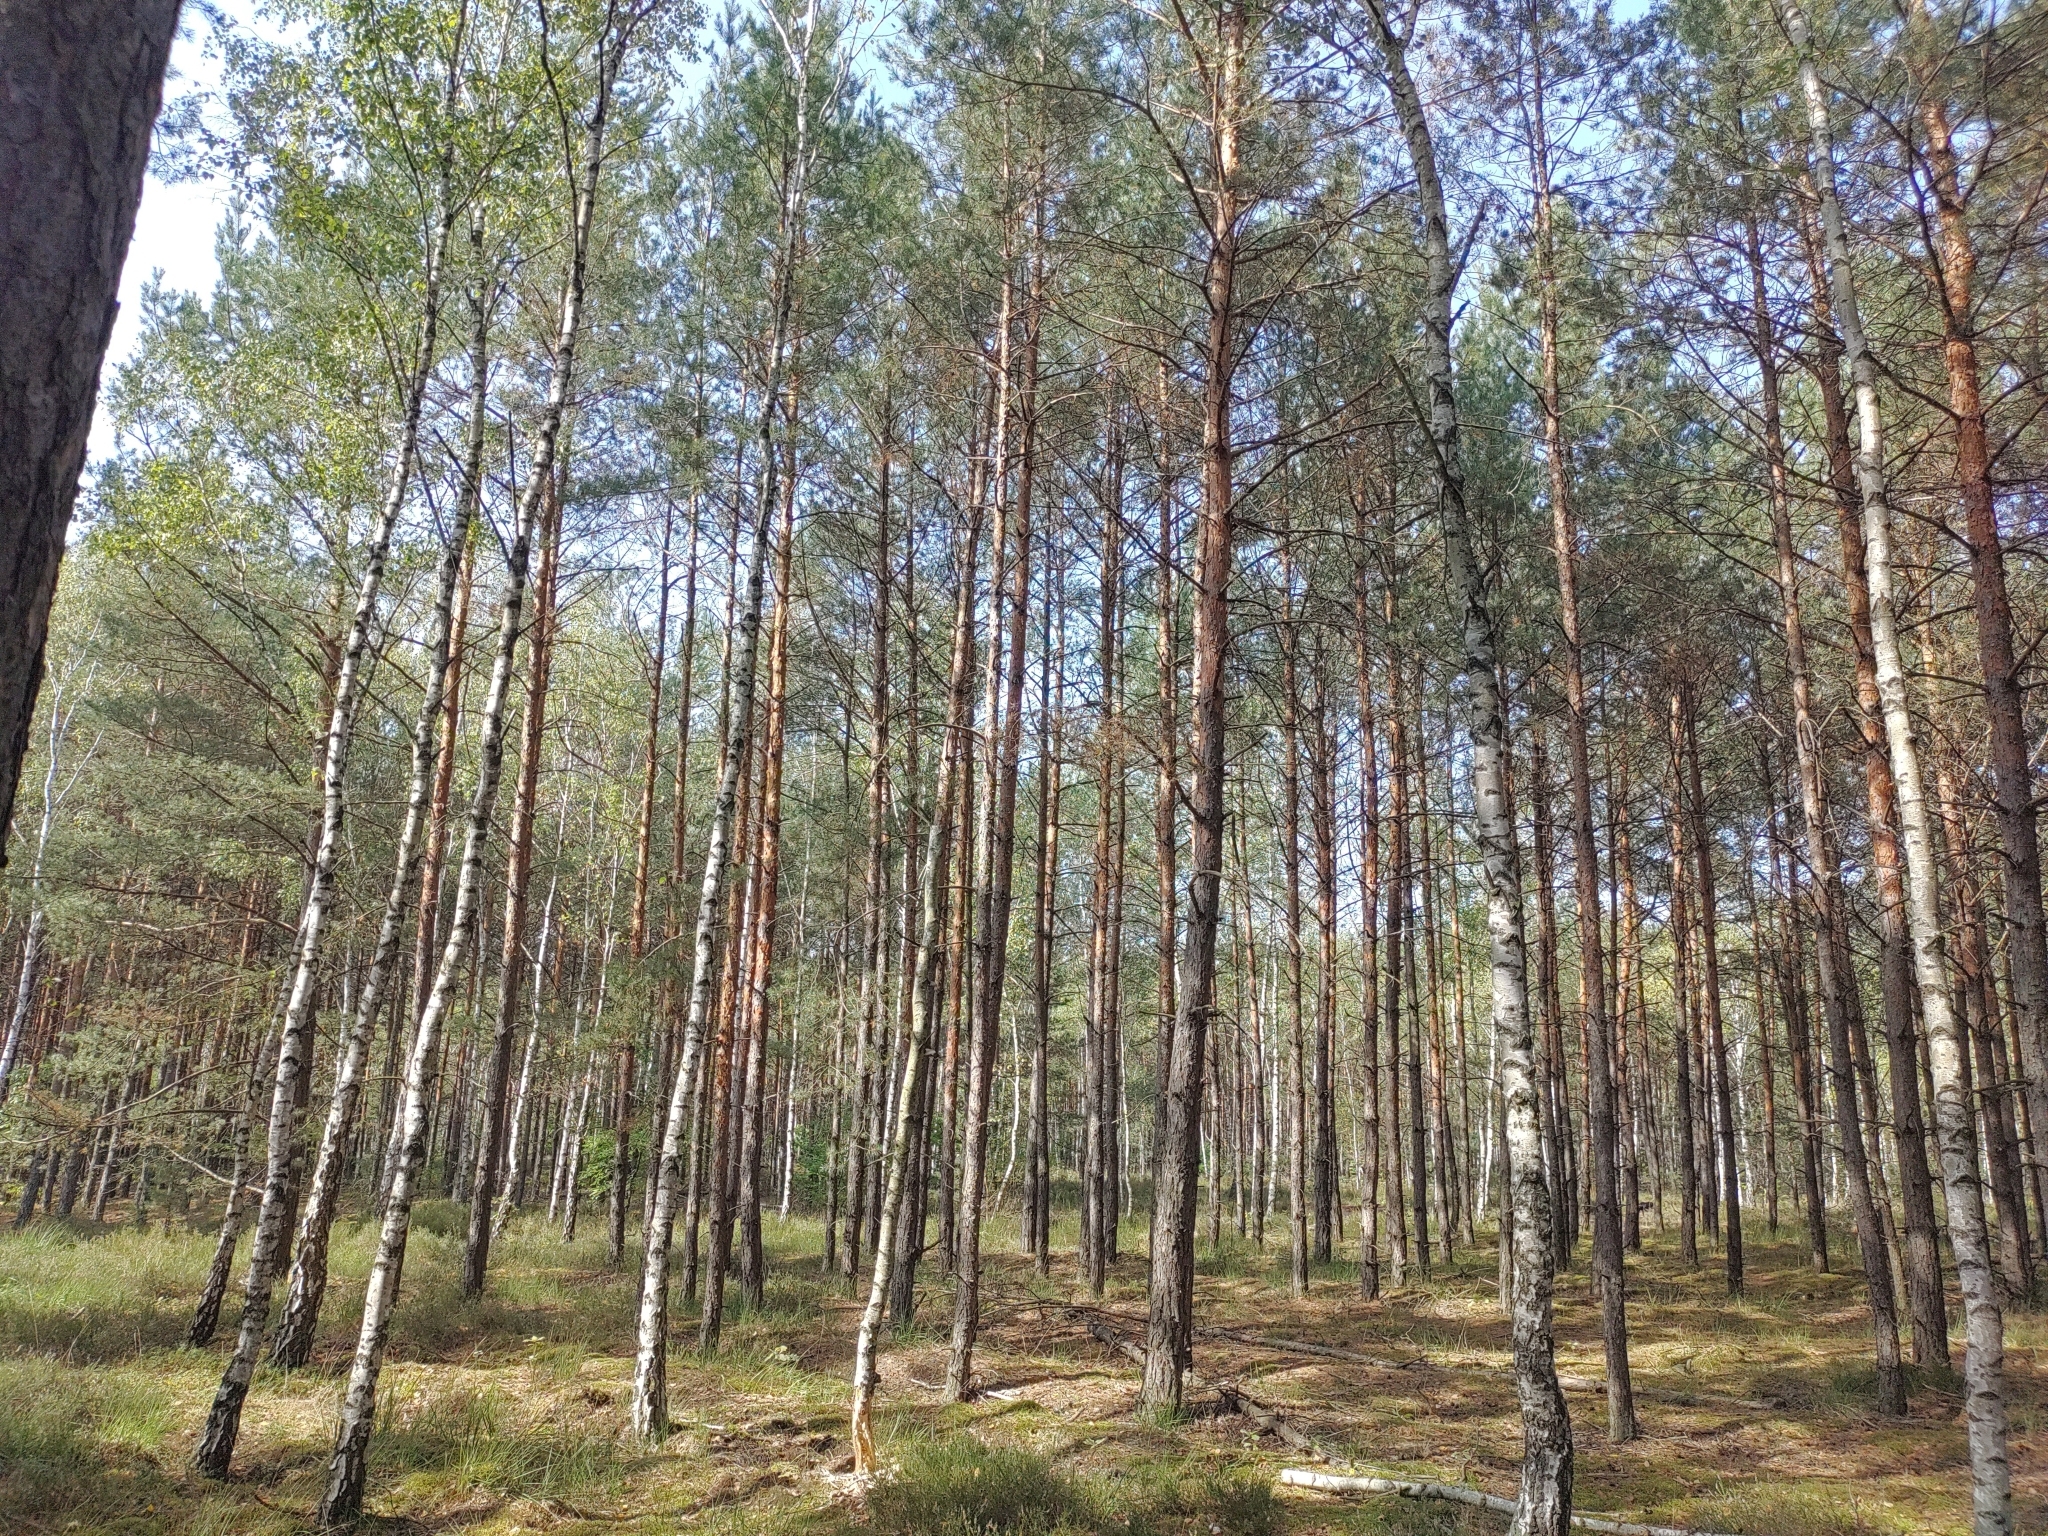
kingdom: Animalia
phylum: Chordata
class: Aves
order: Passeriformes
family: Corvidae
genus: Corvus
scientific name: Corvus corax
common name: Common raven
